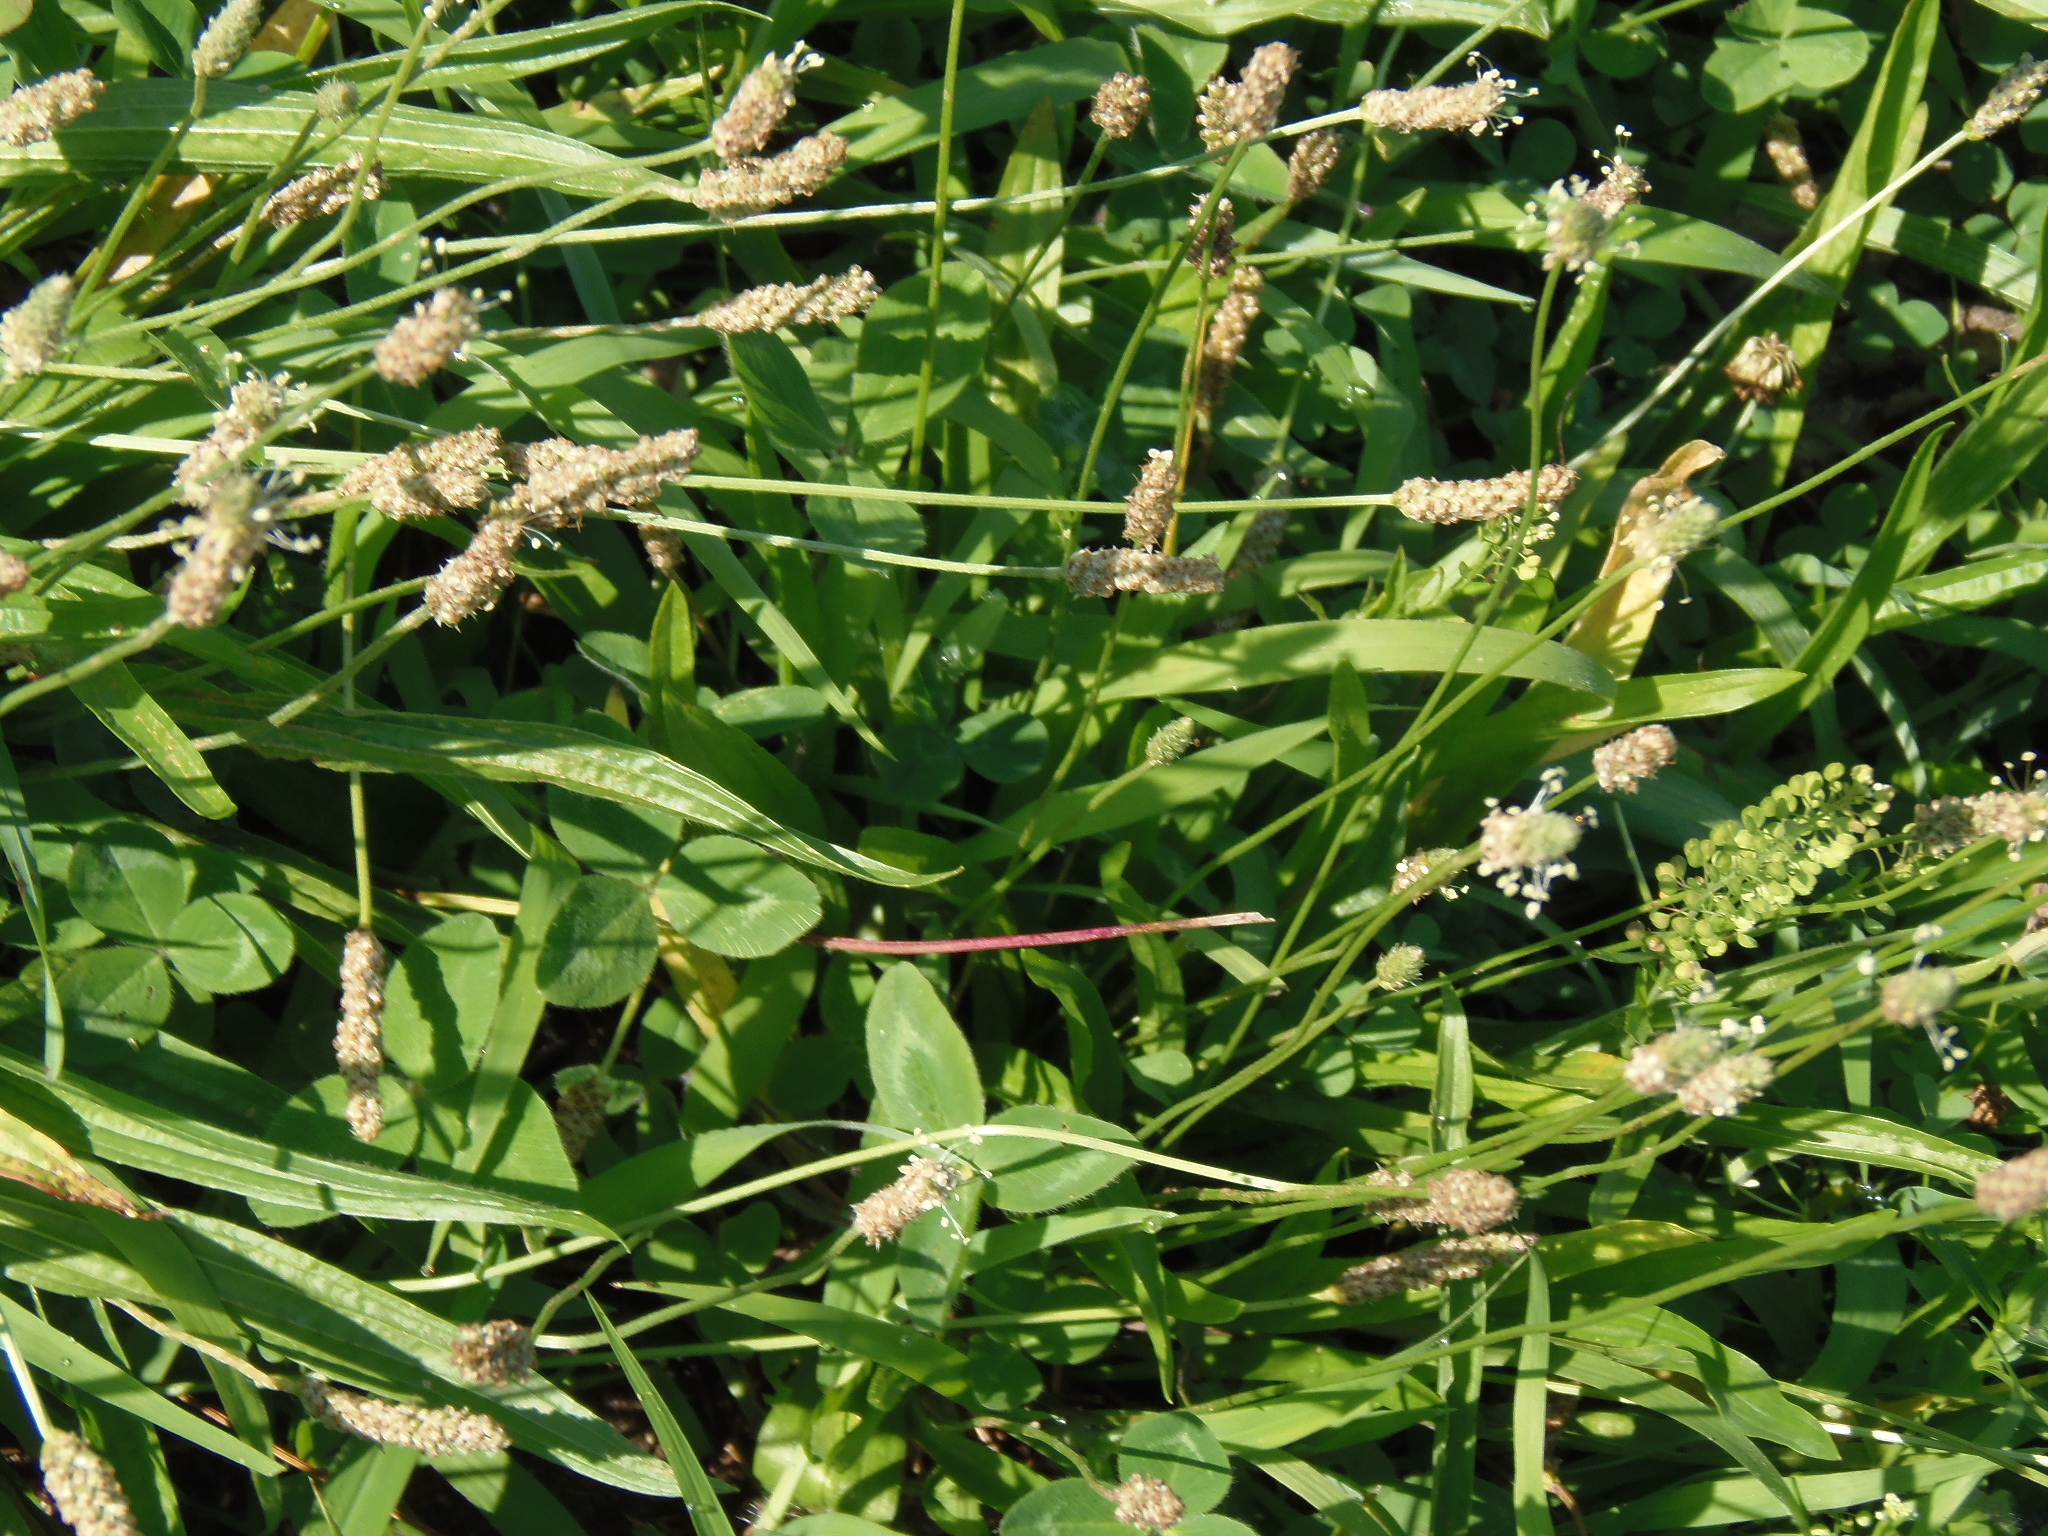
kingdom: Plantae
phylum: Tracheophyta
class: Magnoliopsida
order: Lamiales
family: Plantaginaceae
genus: Plantago
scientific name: Plantago lanceolata
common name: Ribwort plantain
